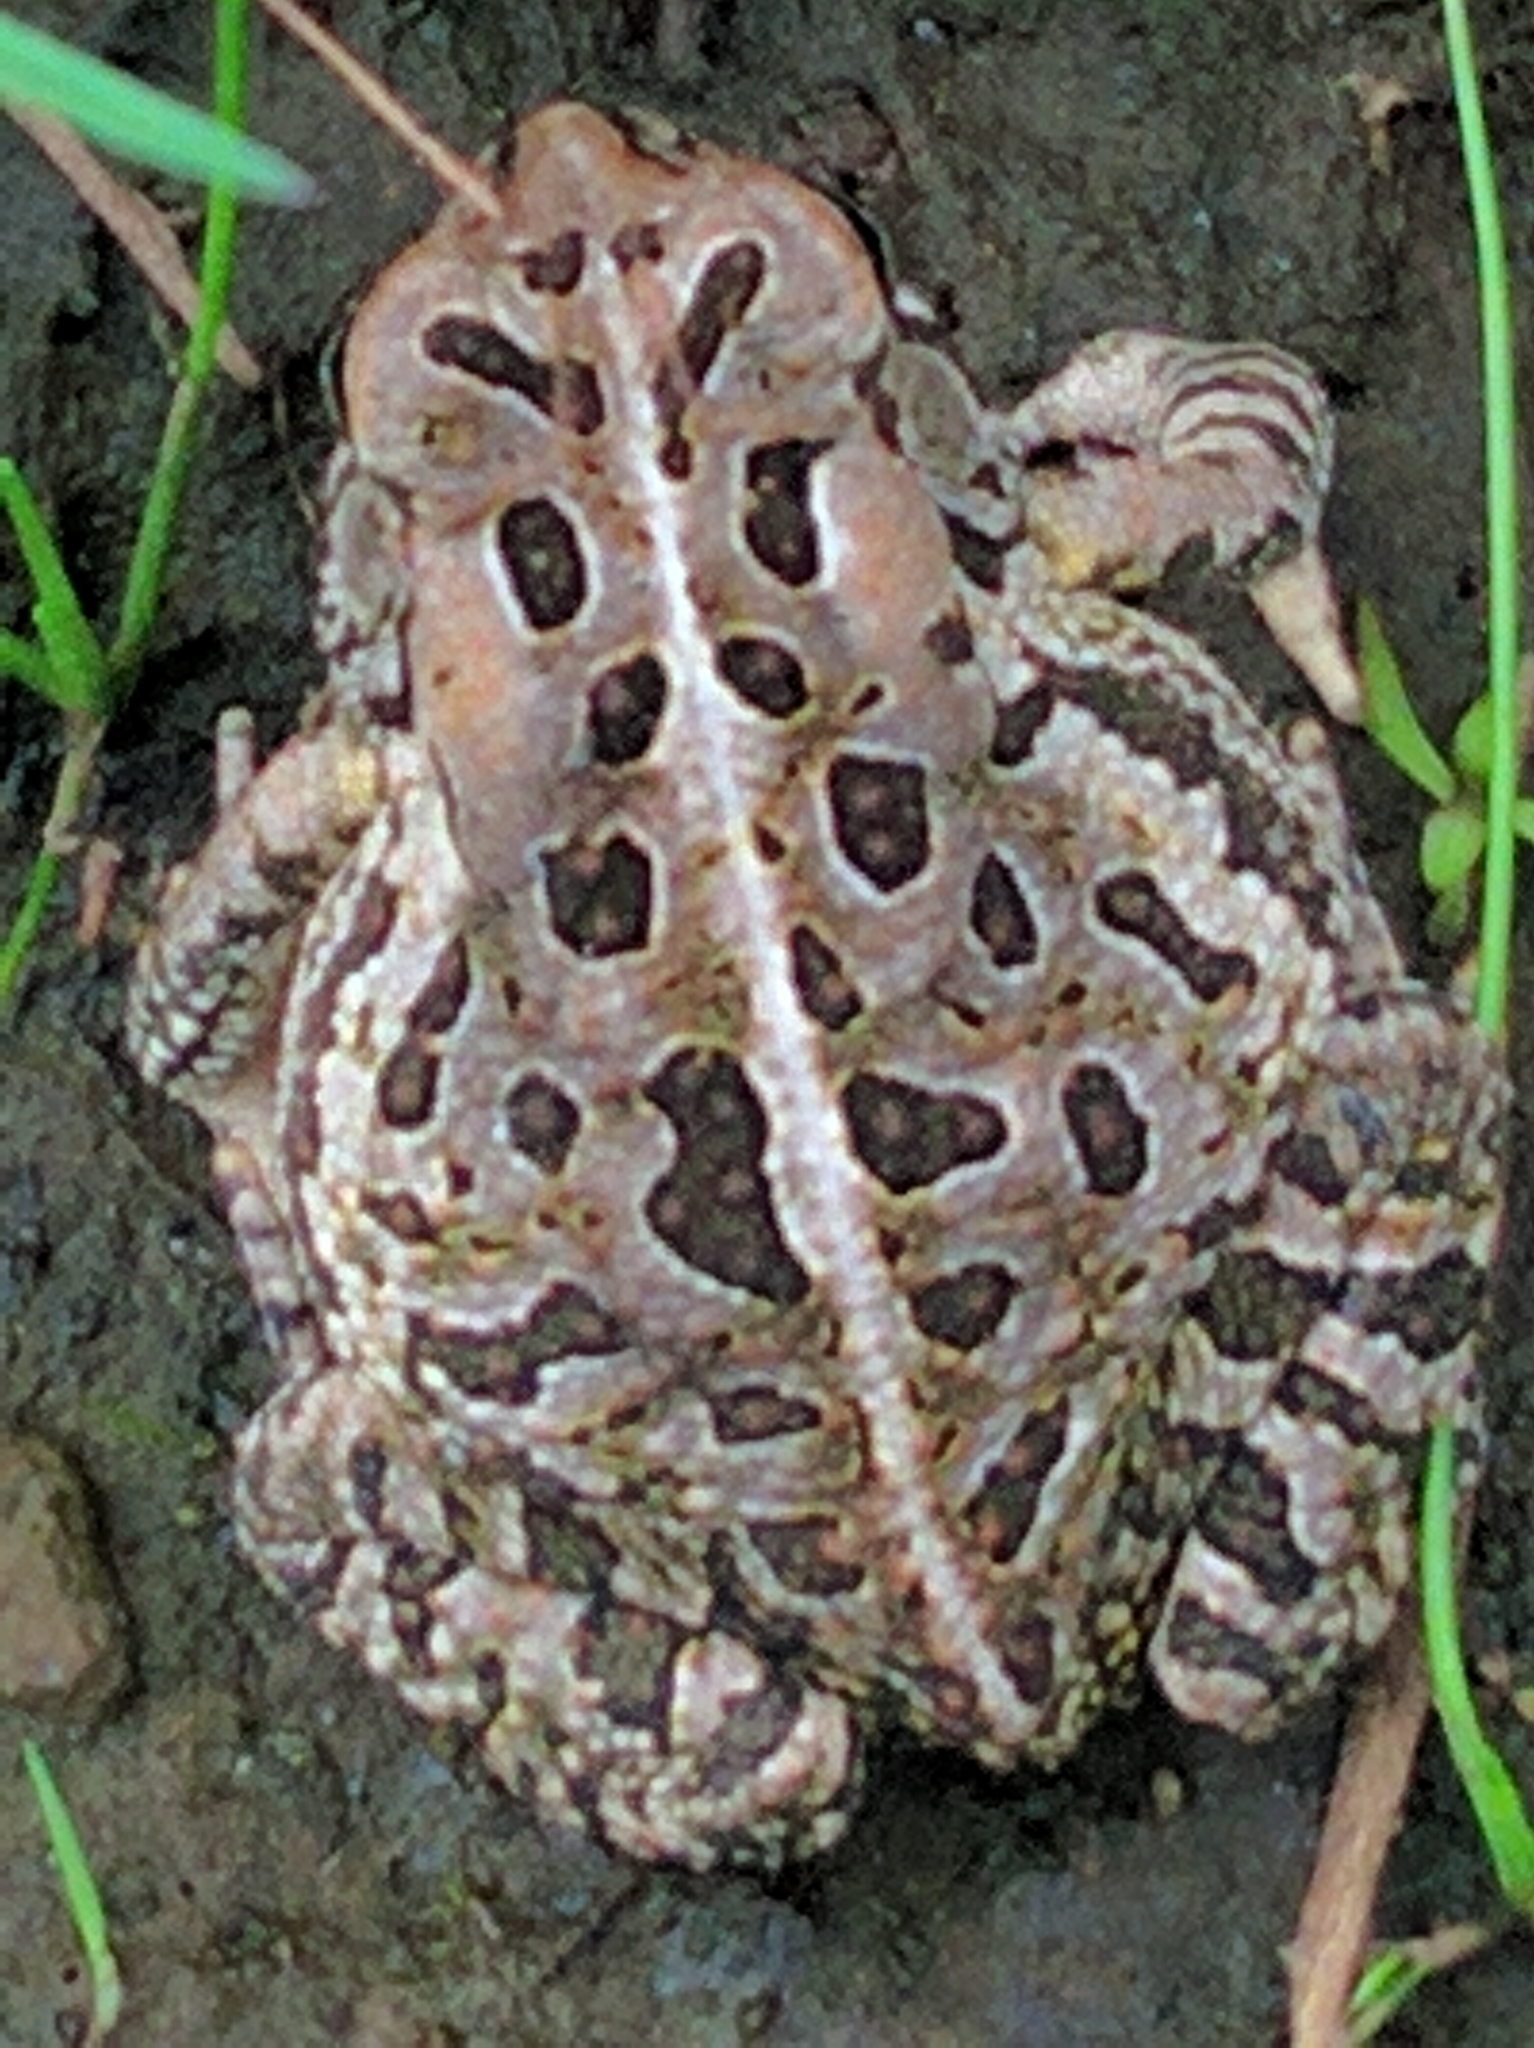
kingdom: Animalia
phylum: Chordata
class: Amphibia
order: Anura
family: Bufonidae
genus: Anaxyrus
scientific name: Anaxyrus fowleri
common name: Fowler's toad
